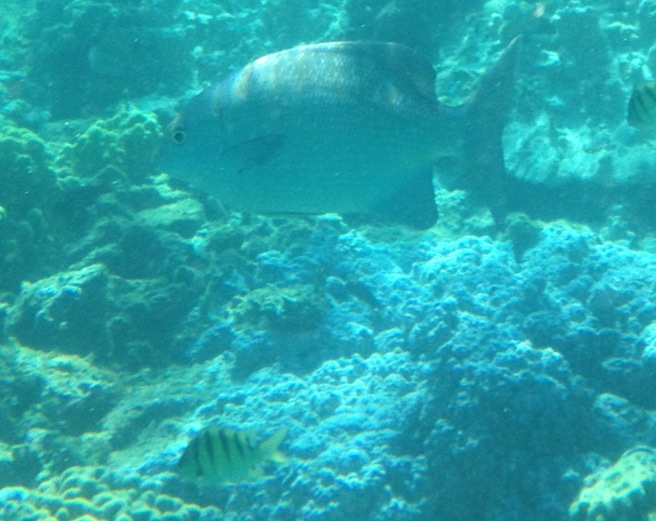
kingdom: Animalia
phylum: Chordata
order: Perciformes
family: Kyphosidae
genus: Kyphosus
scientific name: Kyphosus cinerascens
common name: Topsail drummer
